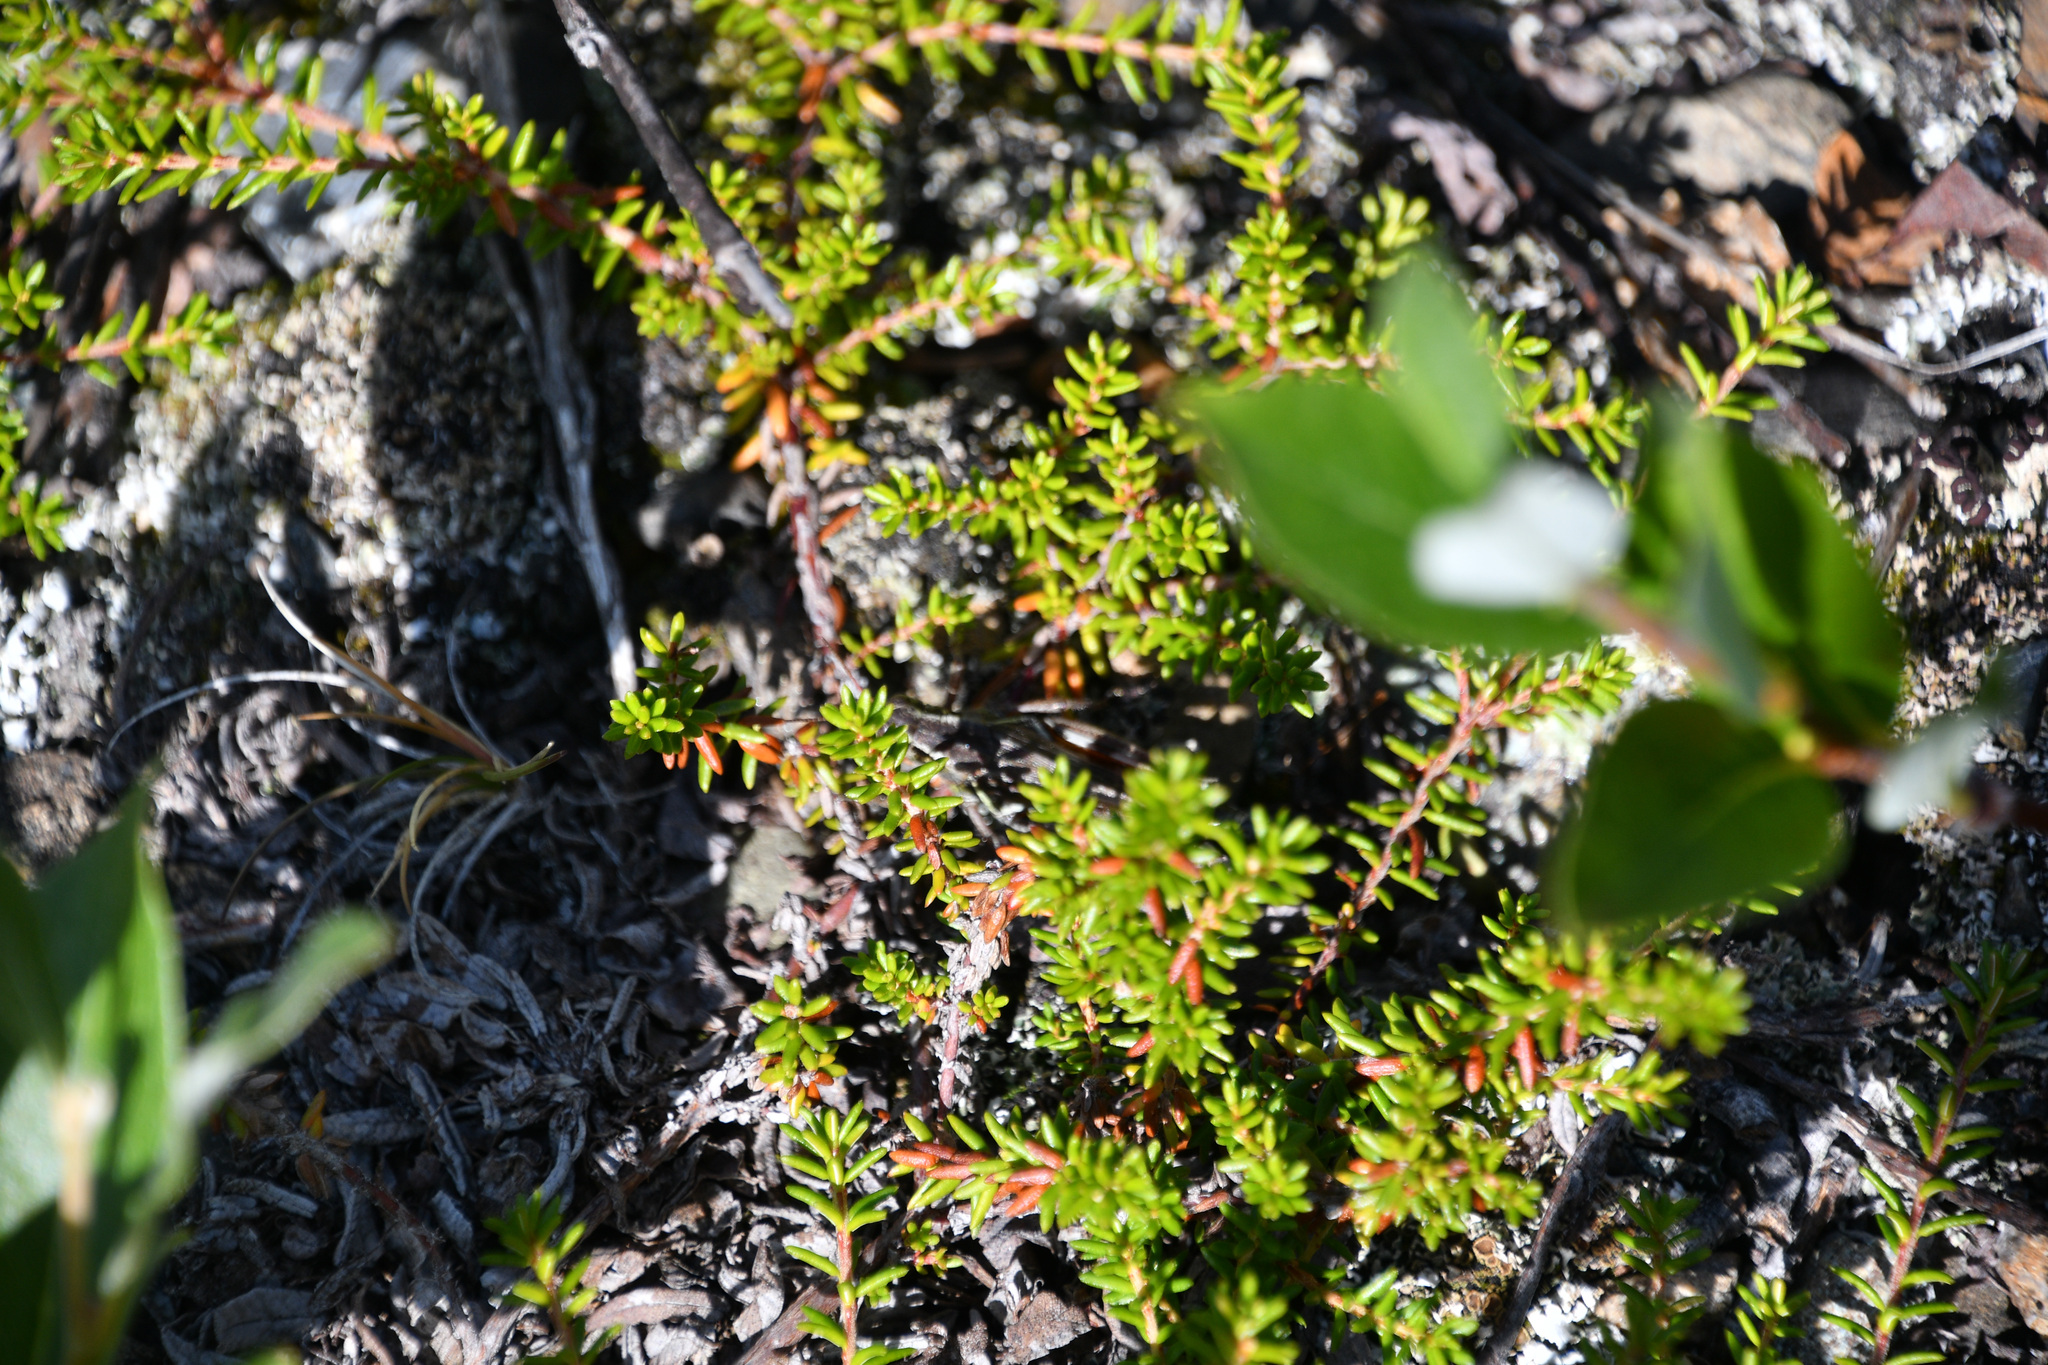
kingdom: Plantae
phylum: Tracheophyta
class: Magnoliopsida
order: Ericales
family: Ericaceae
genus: Empetrum
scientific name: Empetrum nigrum
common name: Black crowberry
